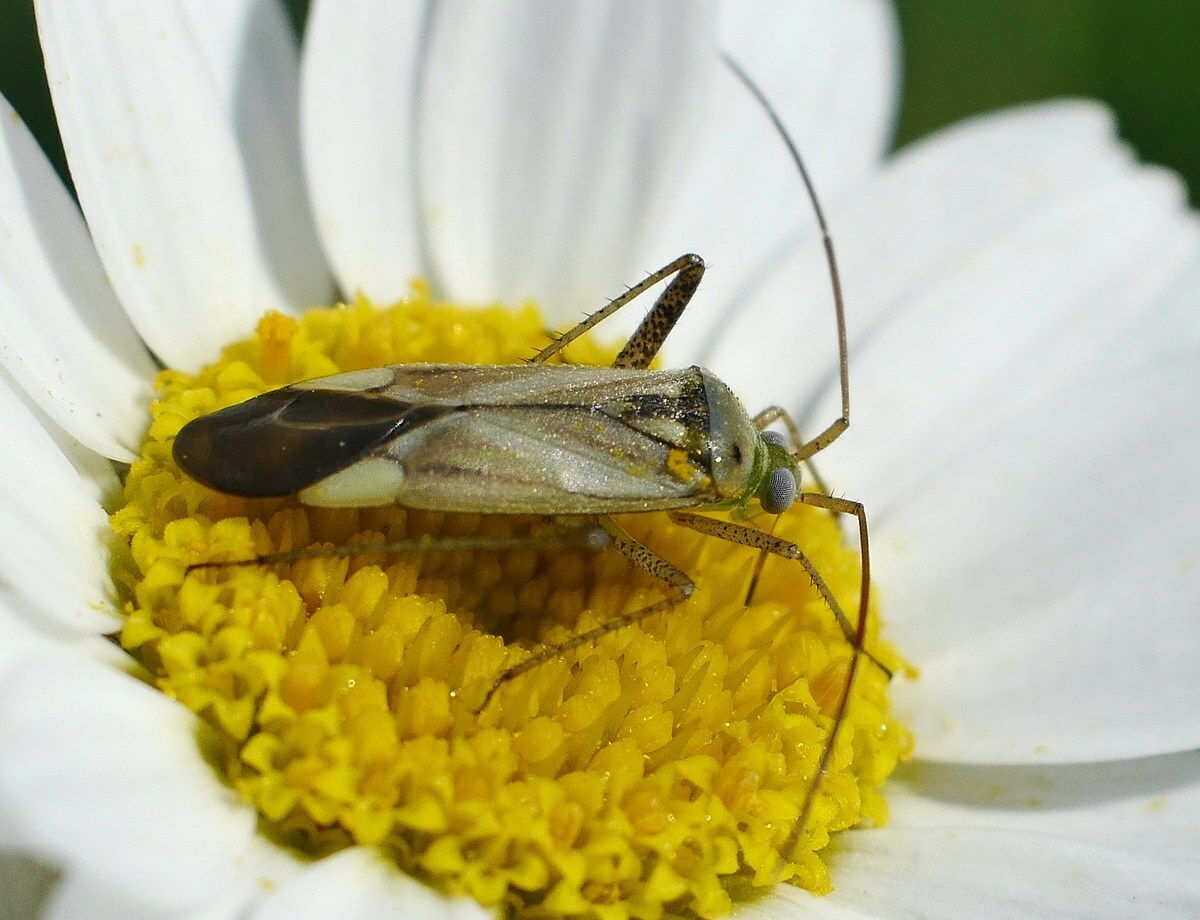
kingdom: Animalia
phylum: Arthropoda
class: Insecta
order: Hemiptera
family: Miridae
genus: Adelphocoris
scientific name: Adelphocoris lineolatus
